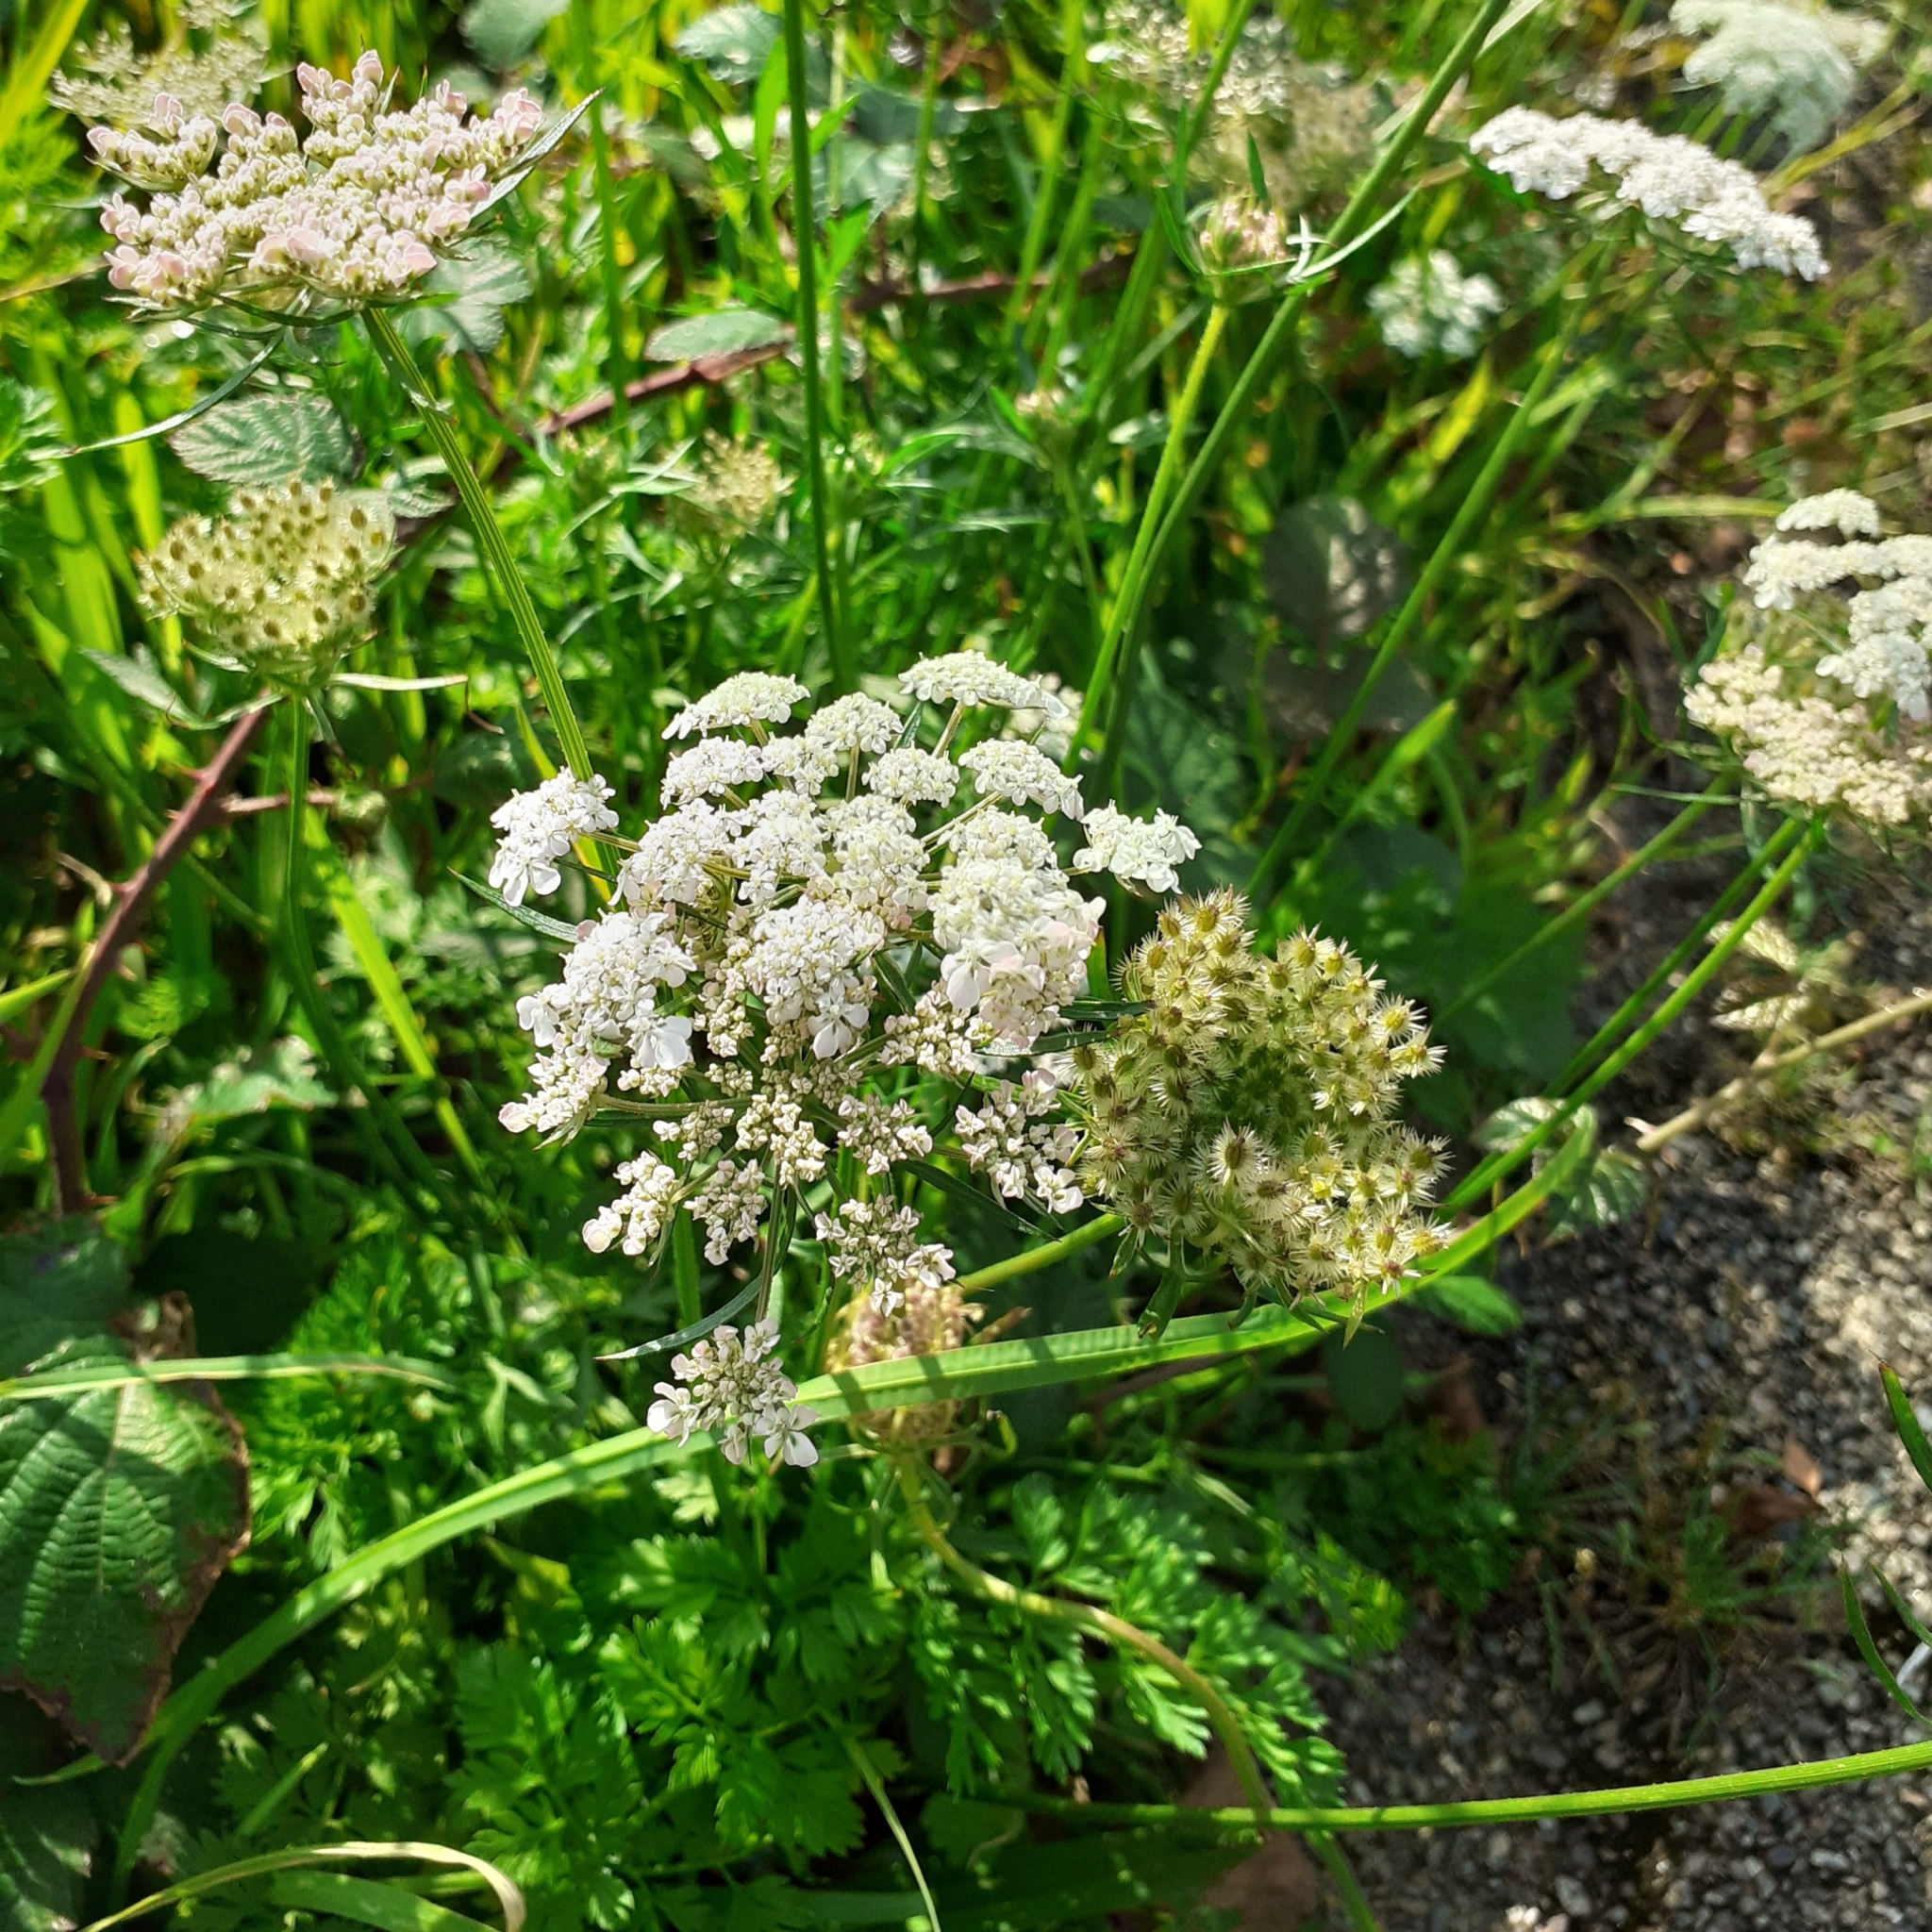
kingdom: Plantae
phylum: Tracheophyta
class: Magnoliopsida
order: Apiales
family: Apiaceae
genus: Daucus
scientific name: Daucus carota
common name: Wild carrot
